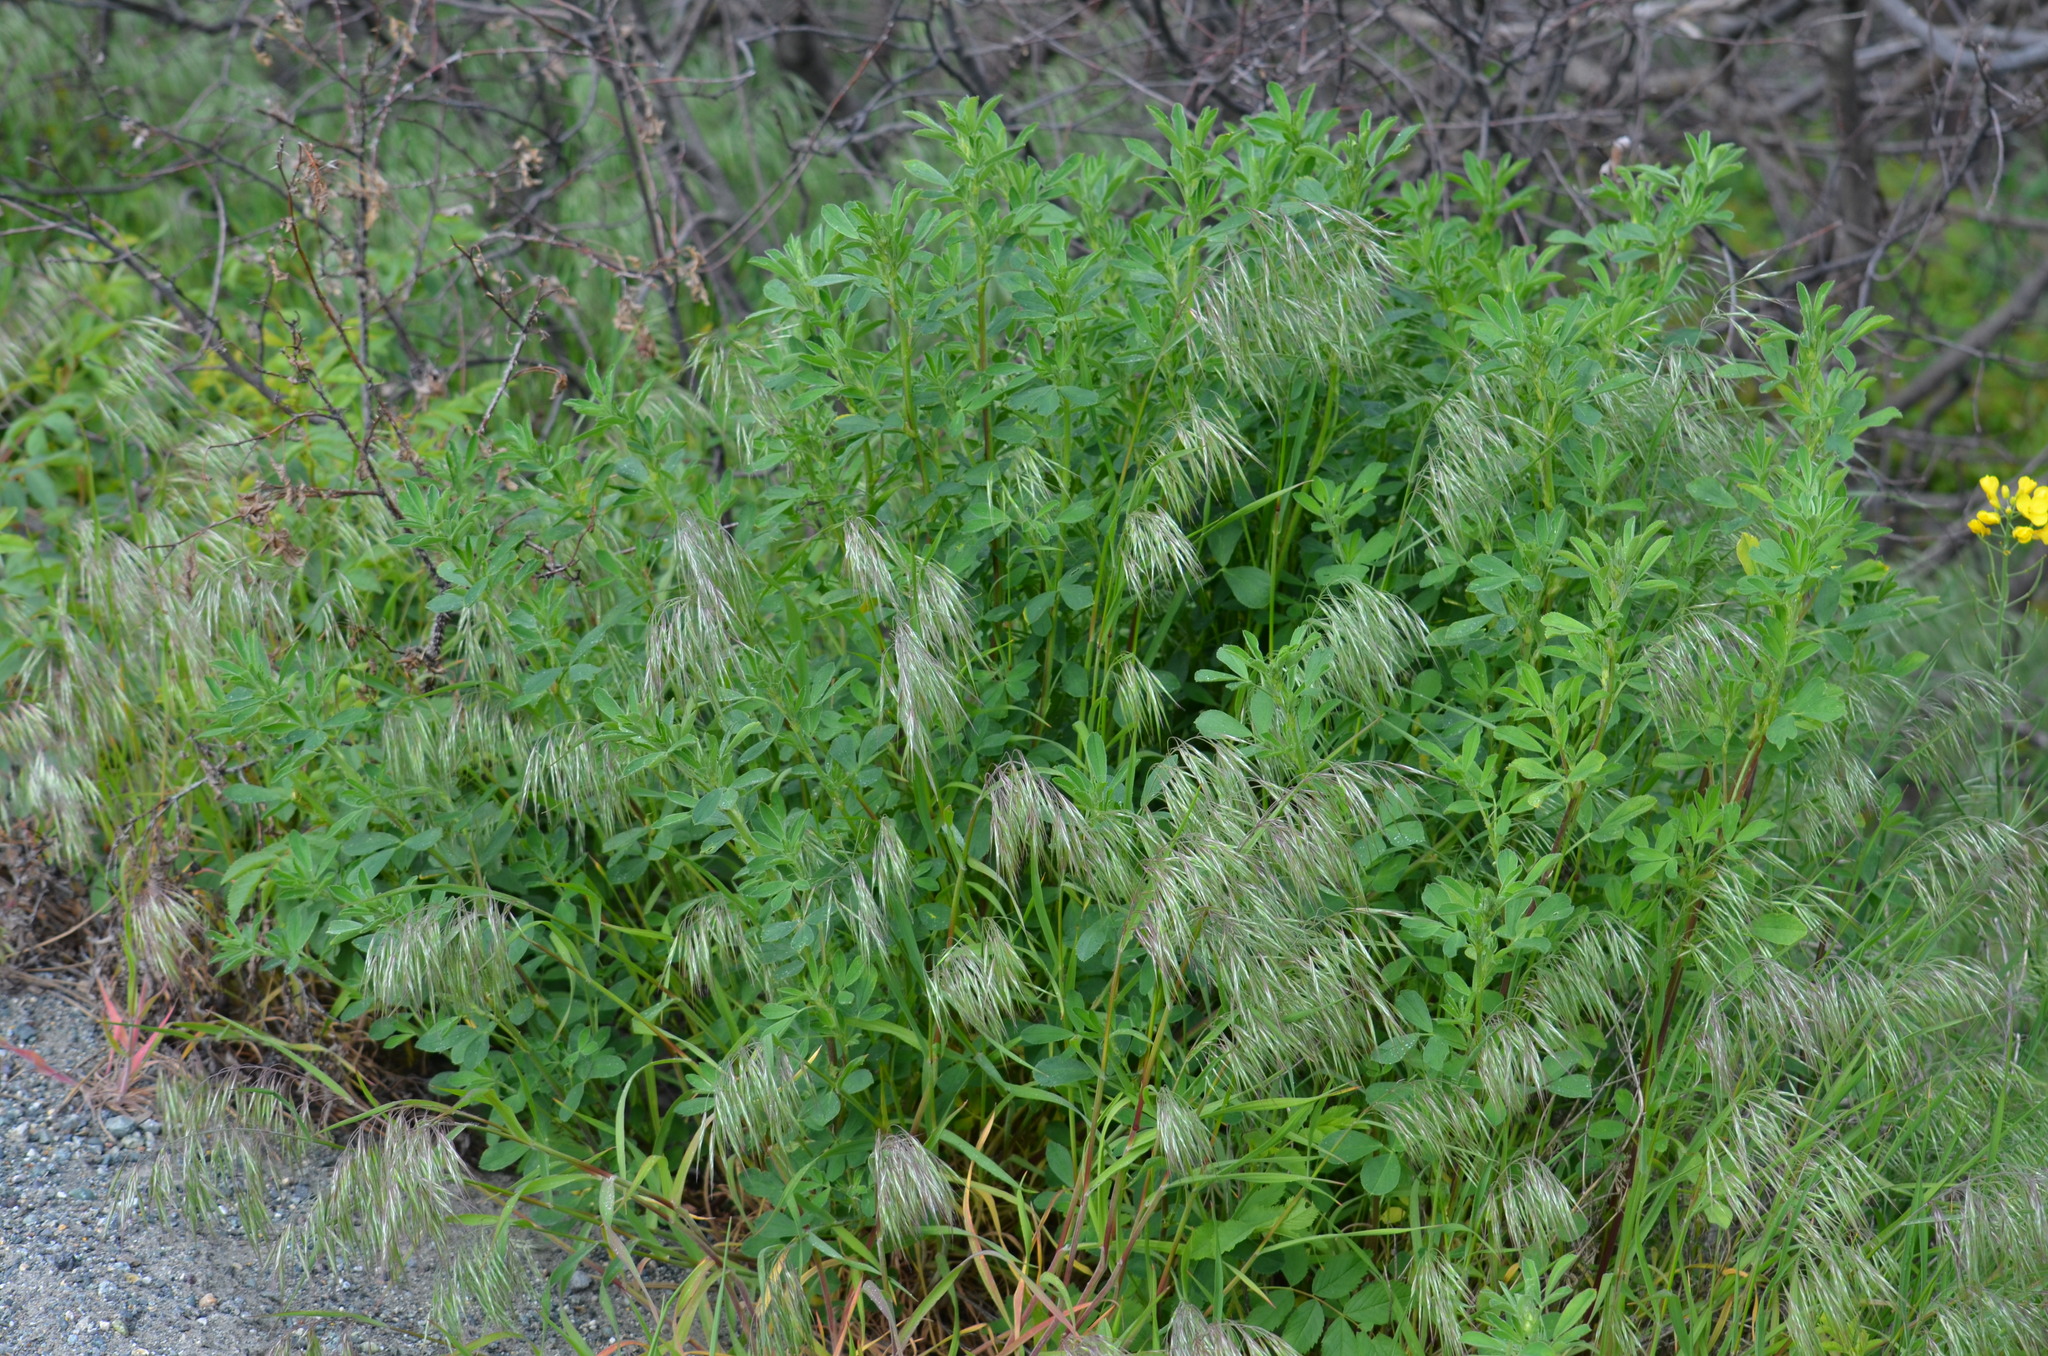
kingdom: Plantae
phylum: Tracheophyta
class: Liliopsida
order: Poales
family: Poaceae
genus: Bromus
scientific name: Bromus tectorum
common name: Cheatgrass
